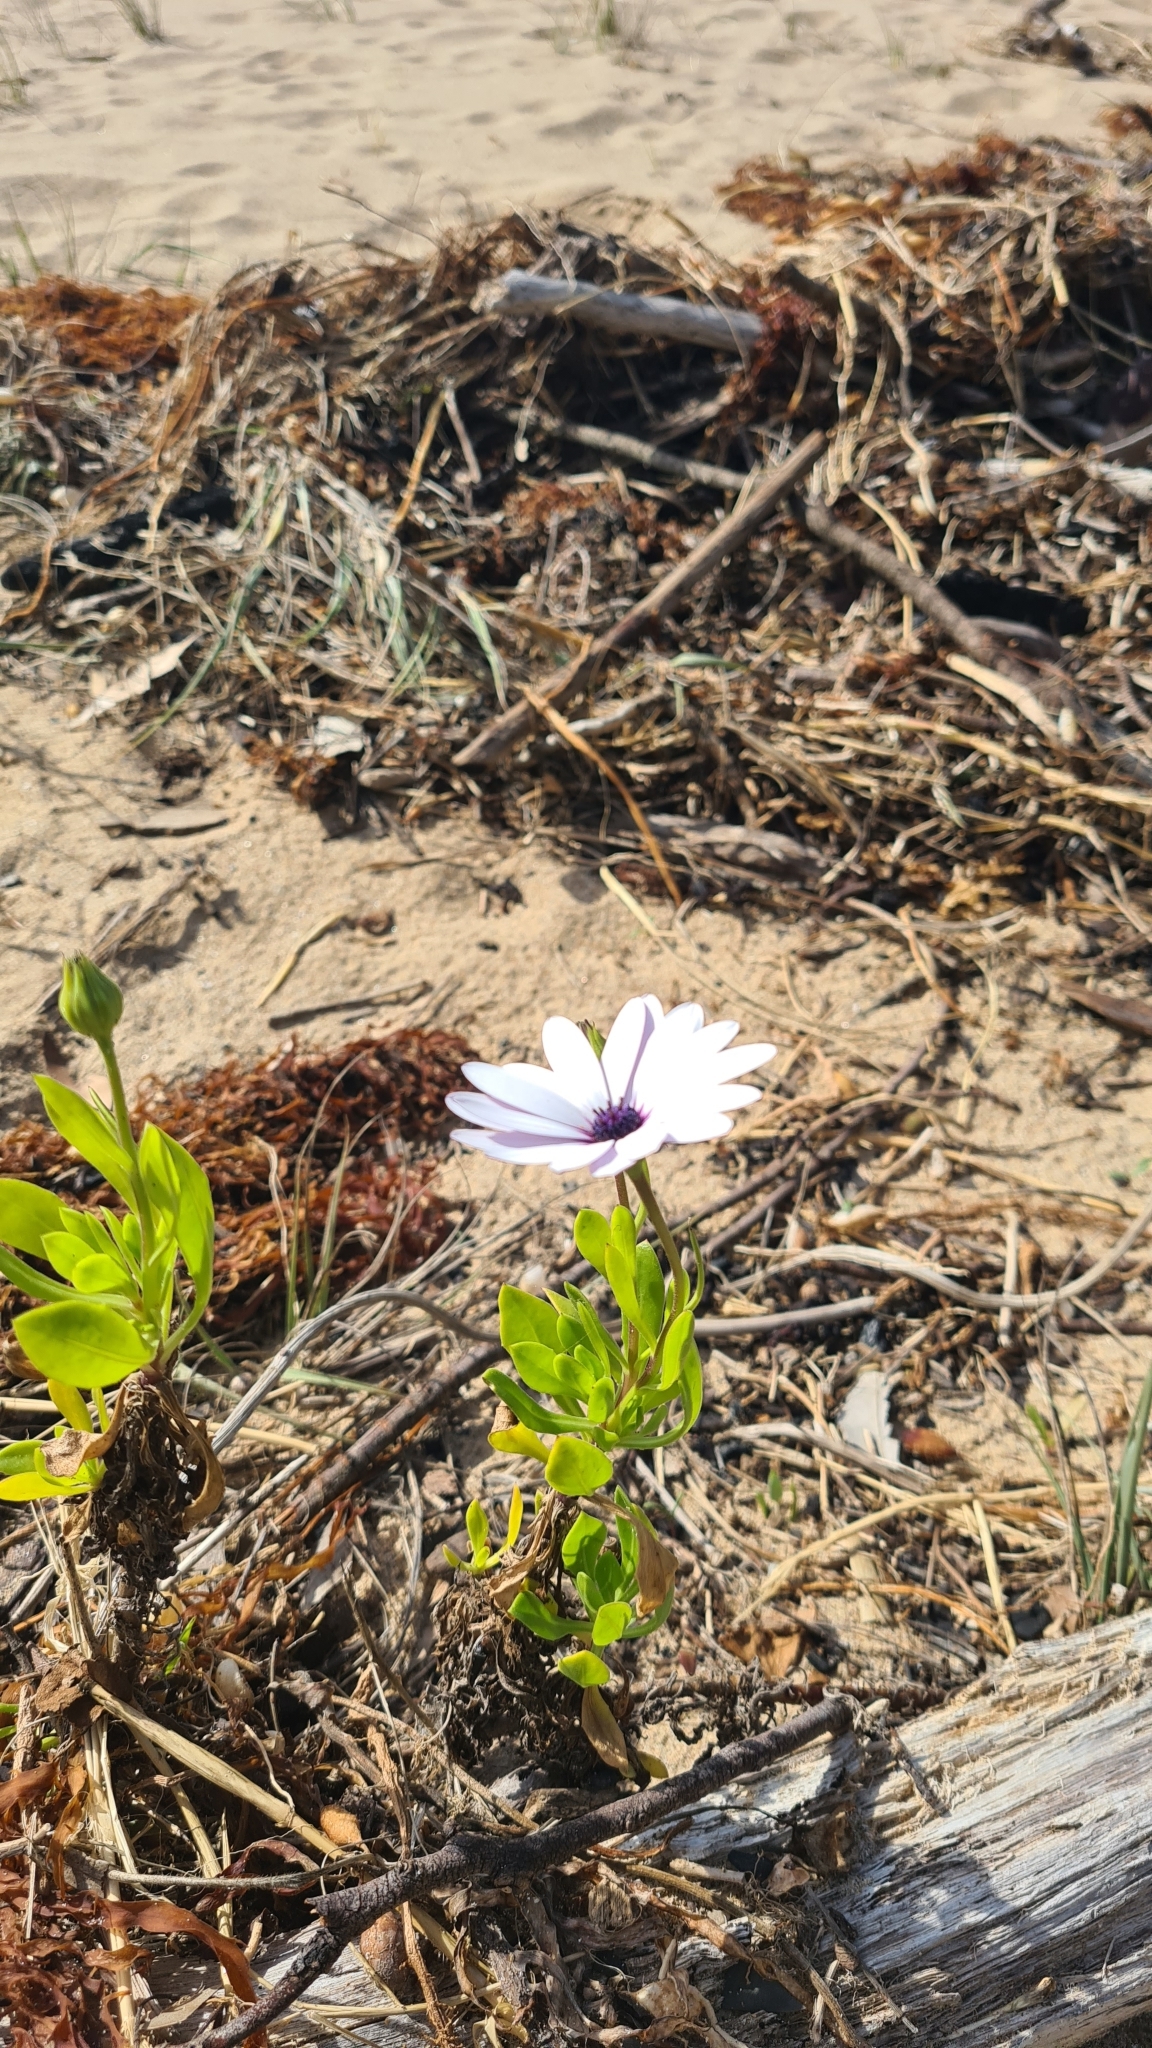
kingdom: Plantae
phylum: Tracheophyta
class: Magnoliopsida
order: Asterales
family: Asteraceae
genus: Dimorphotheca
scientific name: Dimorphotheca ecklonis
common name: Vanstaden's river daisy
